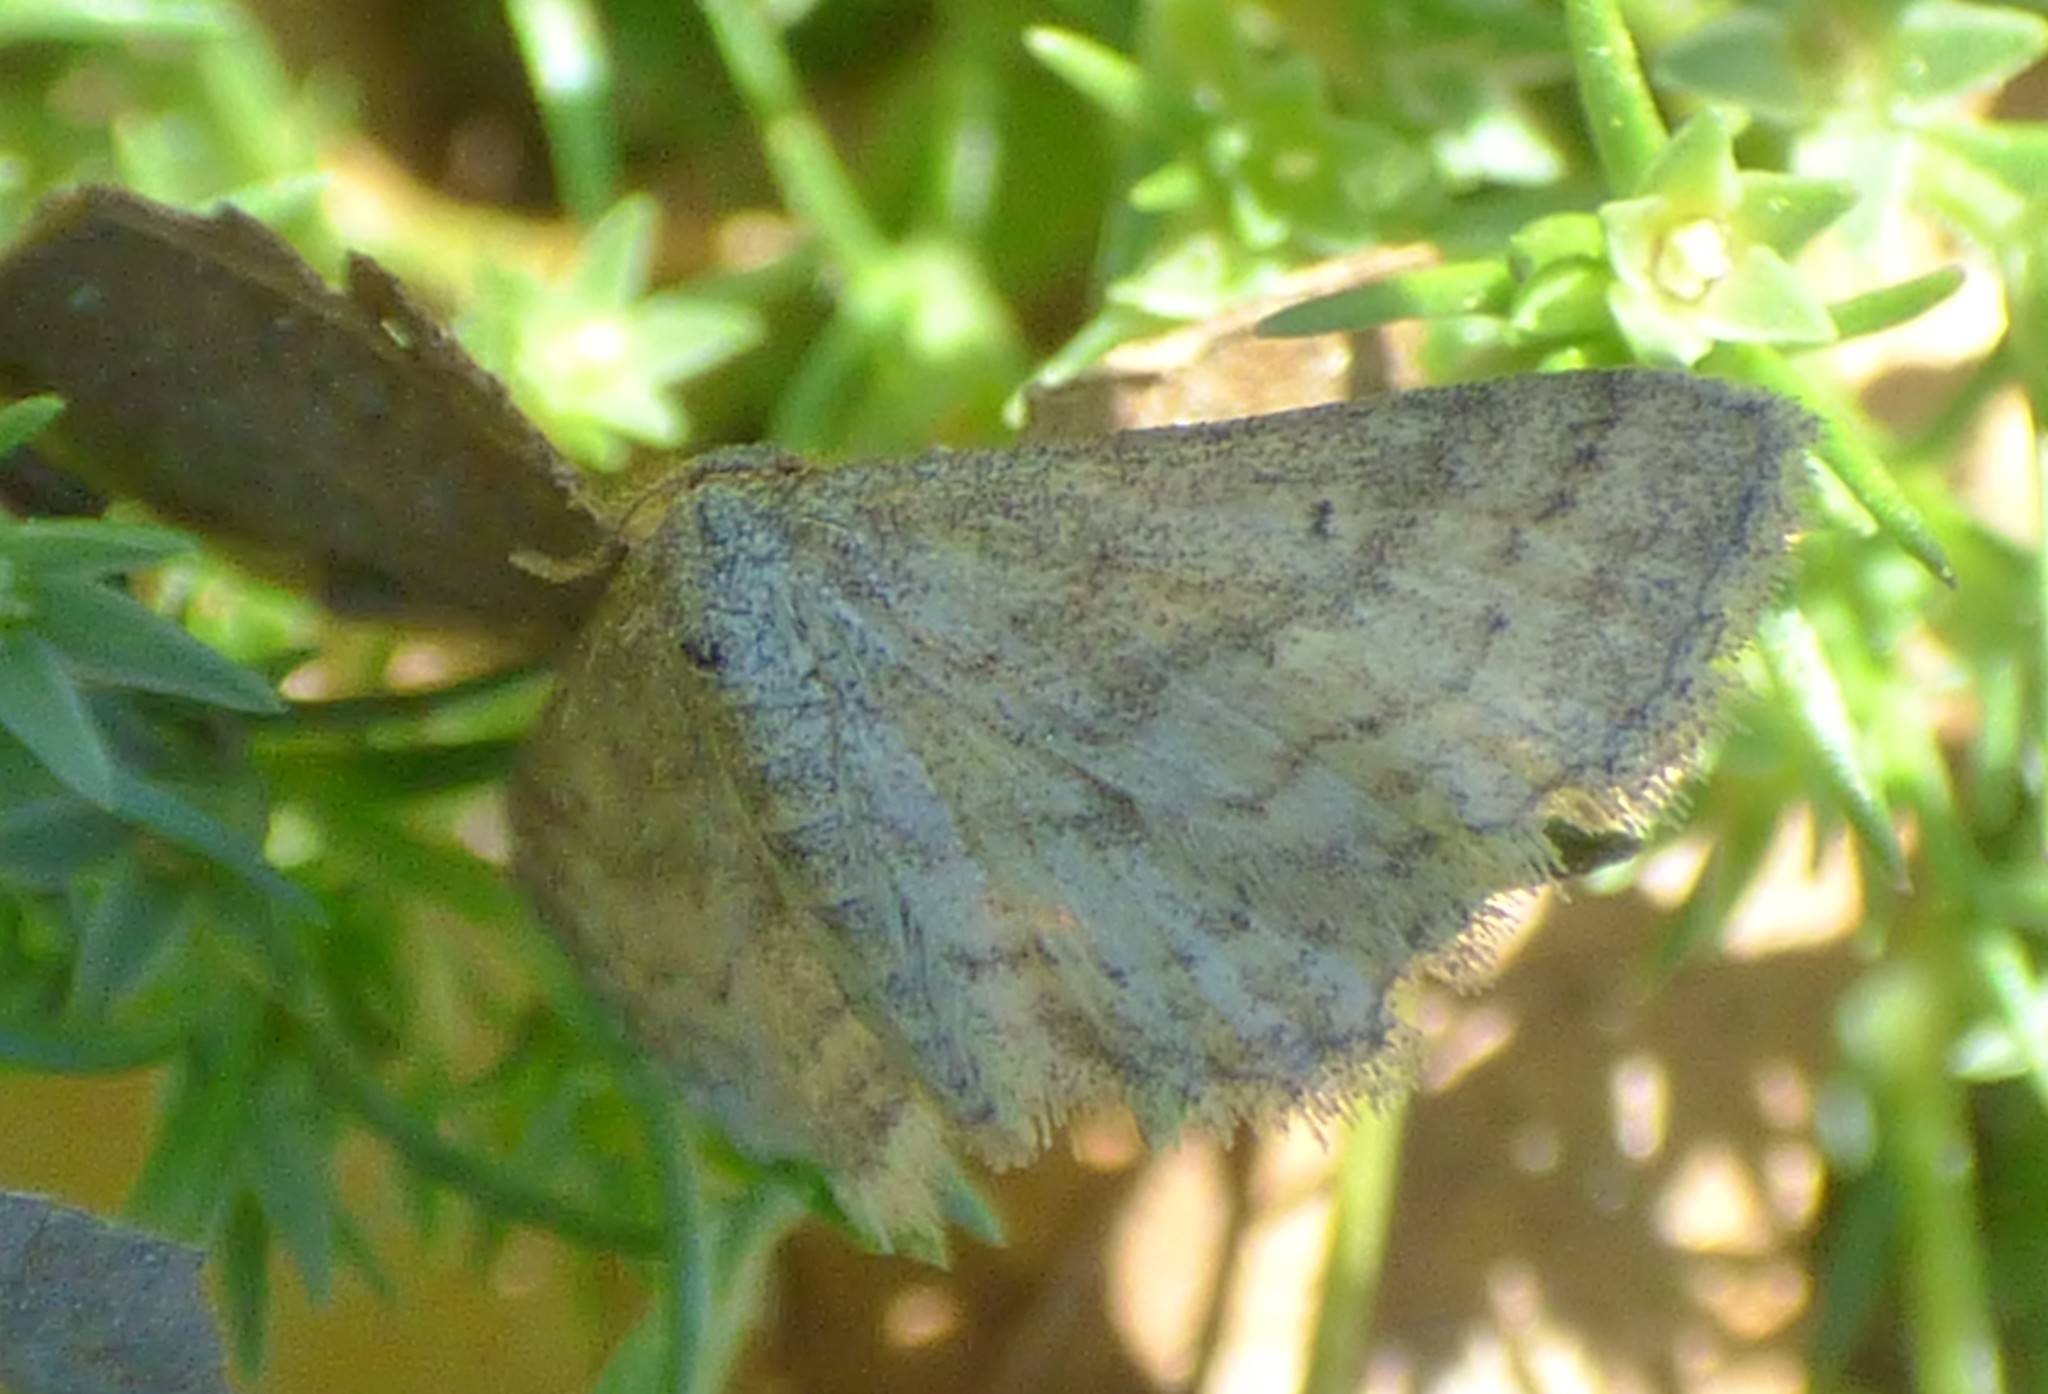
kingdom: Animalia
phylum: Arthropoda
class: Insecta
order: Lepidoptera
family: Geometridae
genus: Lobocleta
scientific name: Lobocleta ossularia
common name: Drab brown wave
